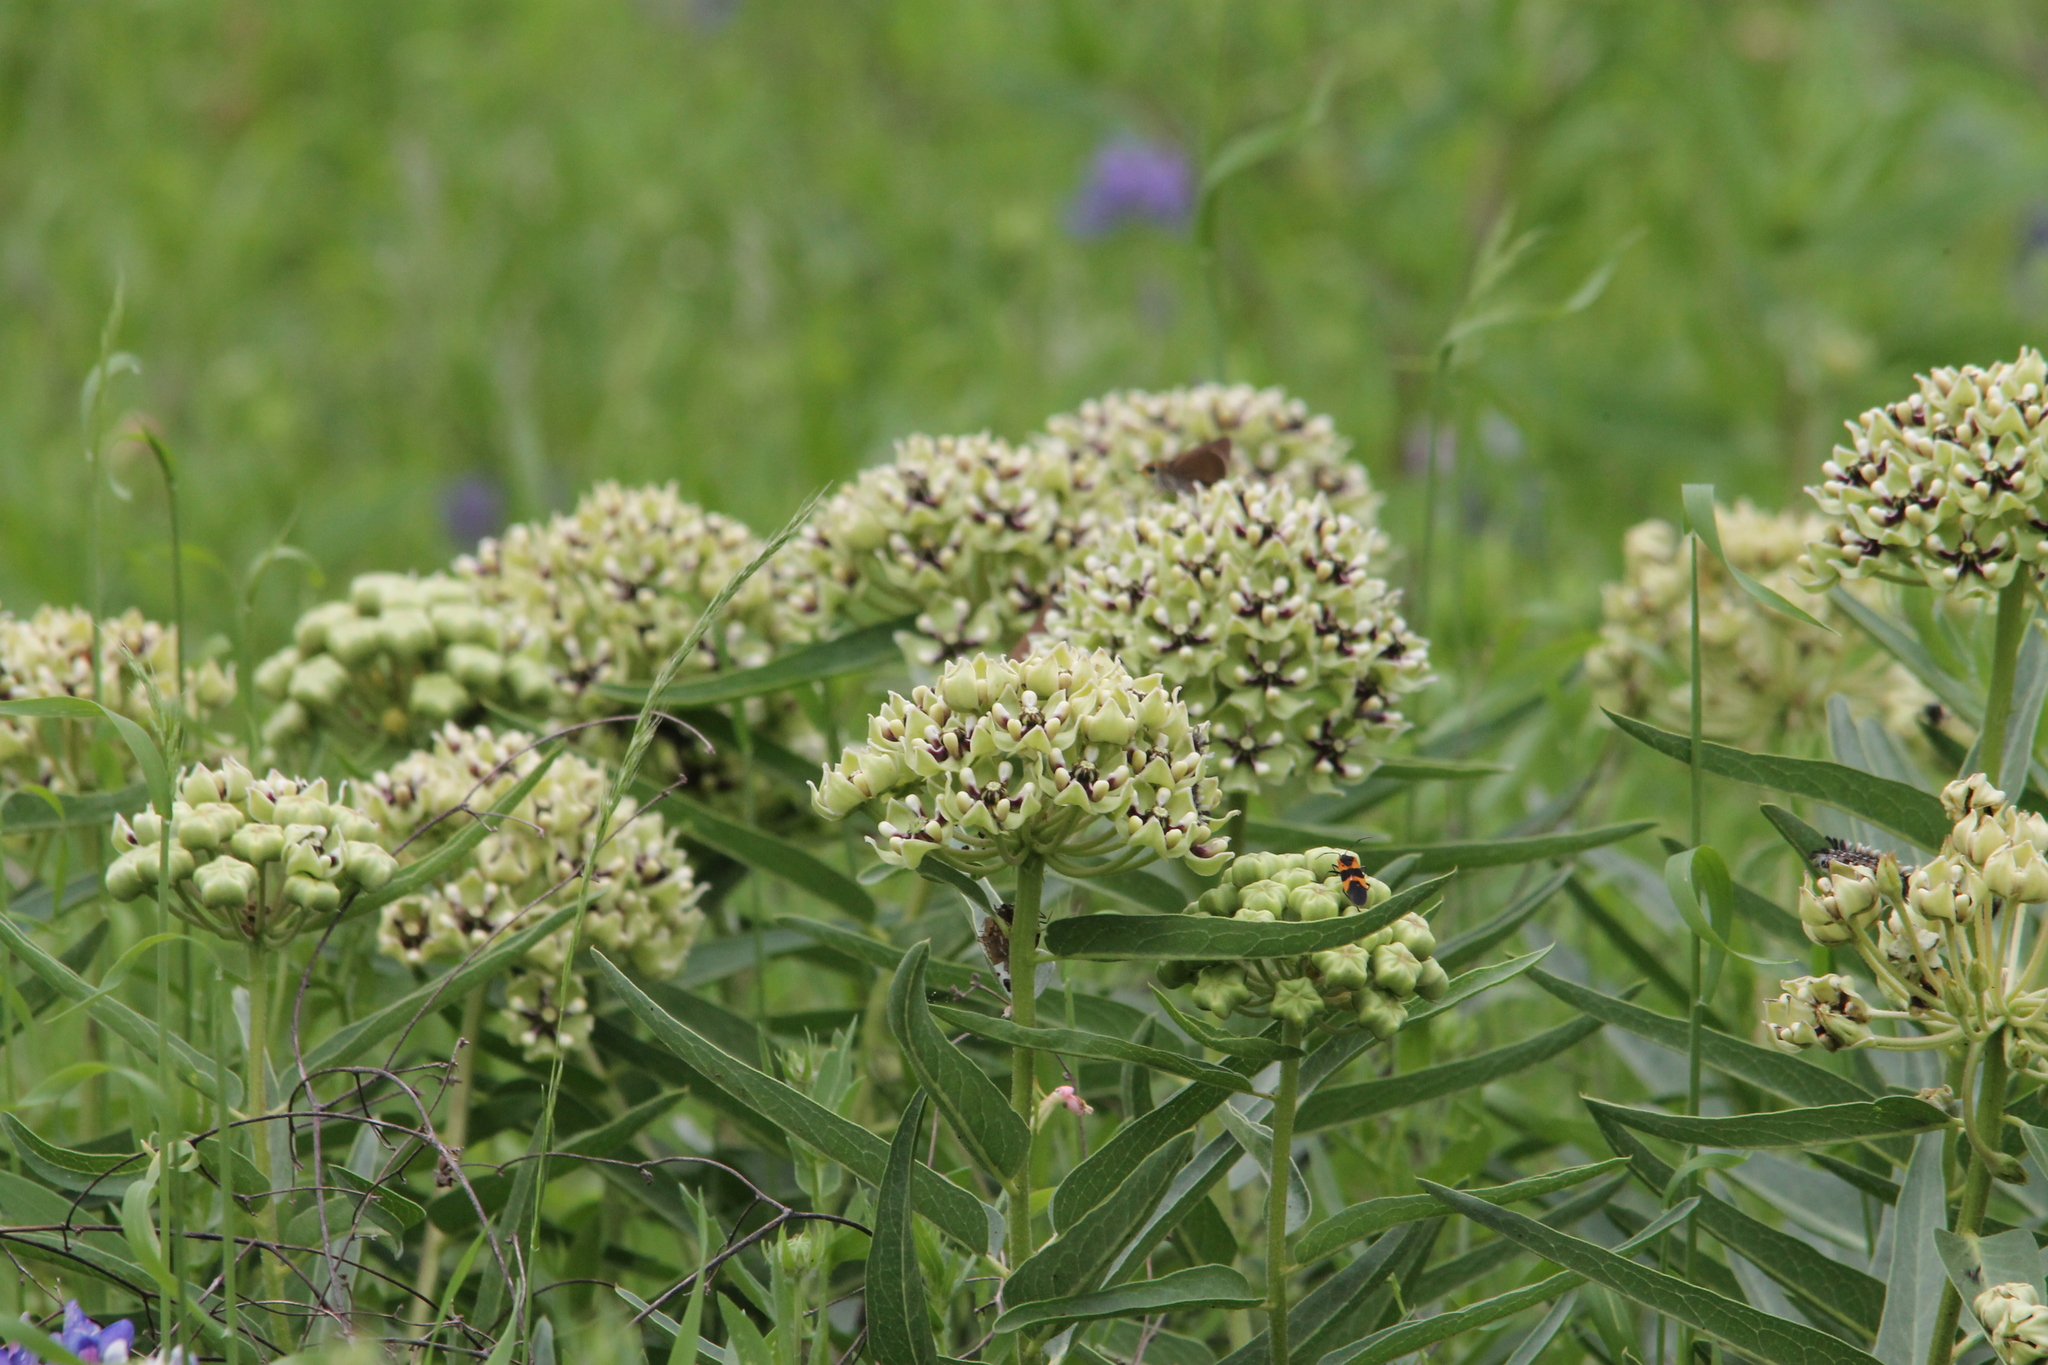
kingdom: Plantae
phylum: Tracheophyta
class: Magnoliopsida
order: Gentianales
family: Apocynaceae
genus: Asclepias
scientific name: Asclepias asperula
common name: Antelope horns
